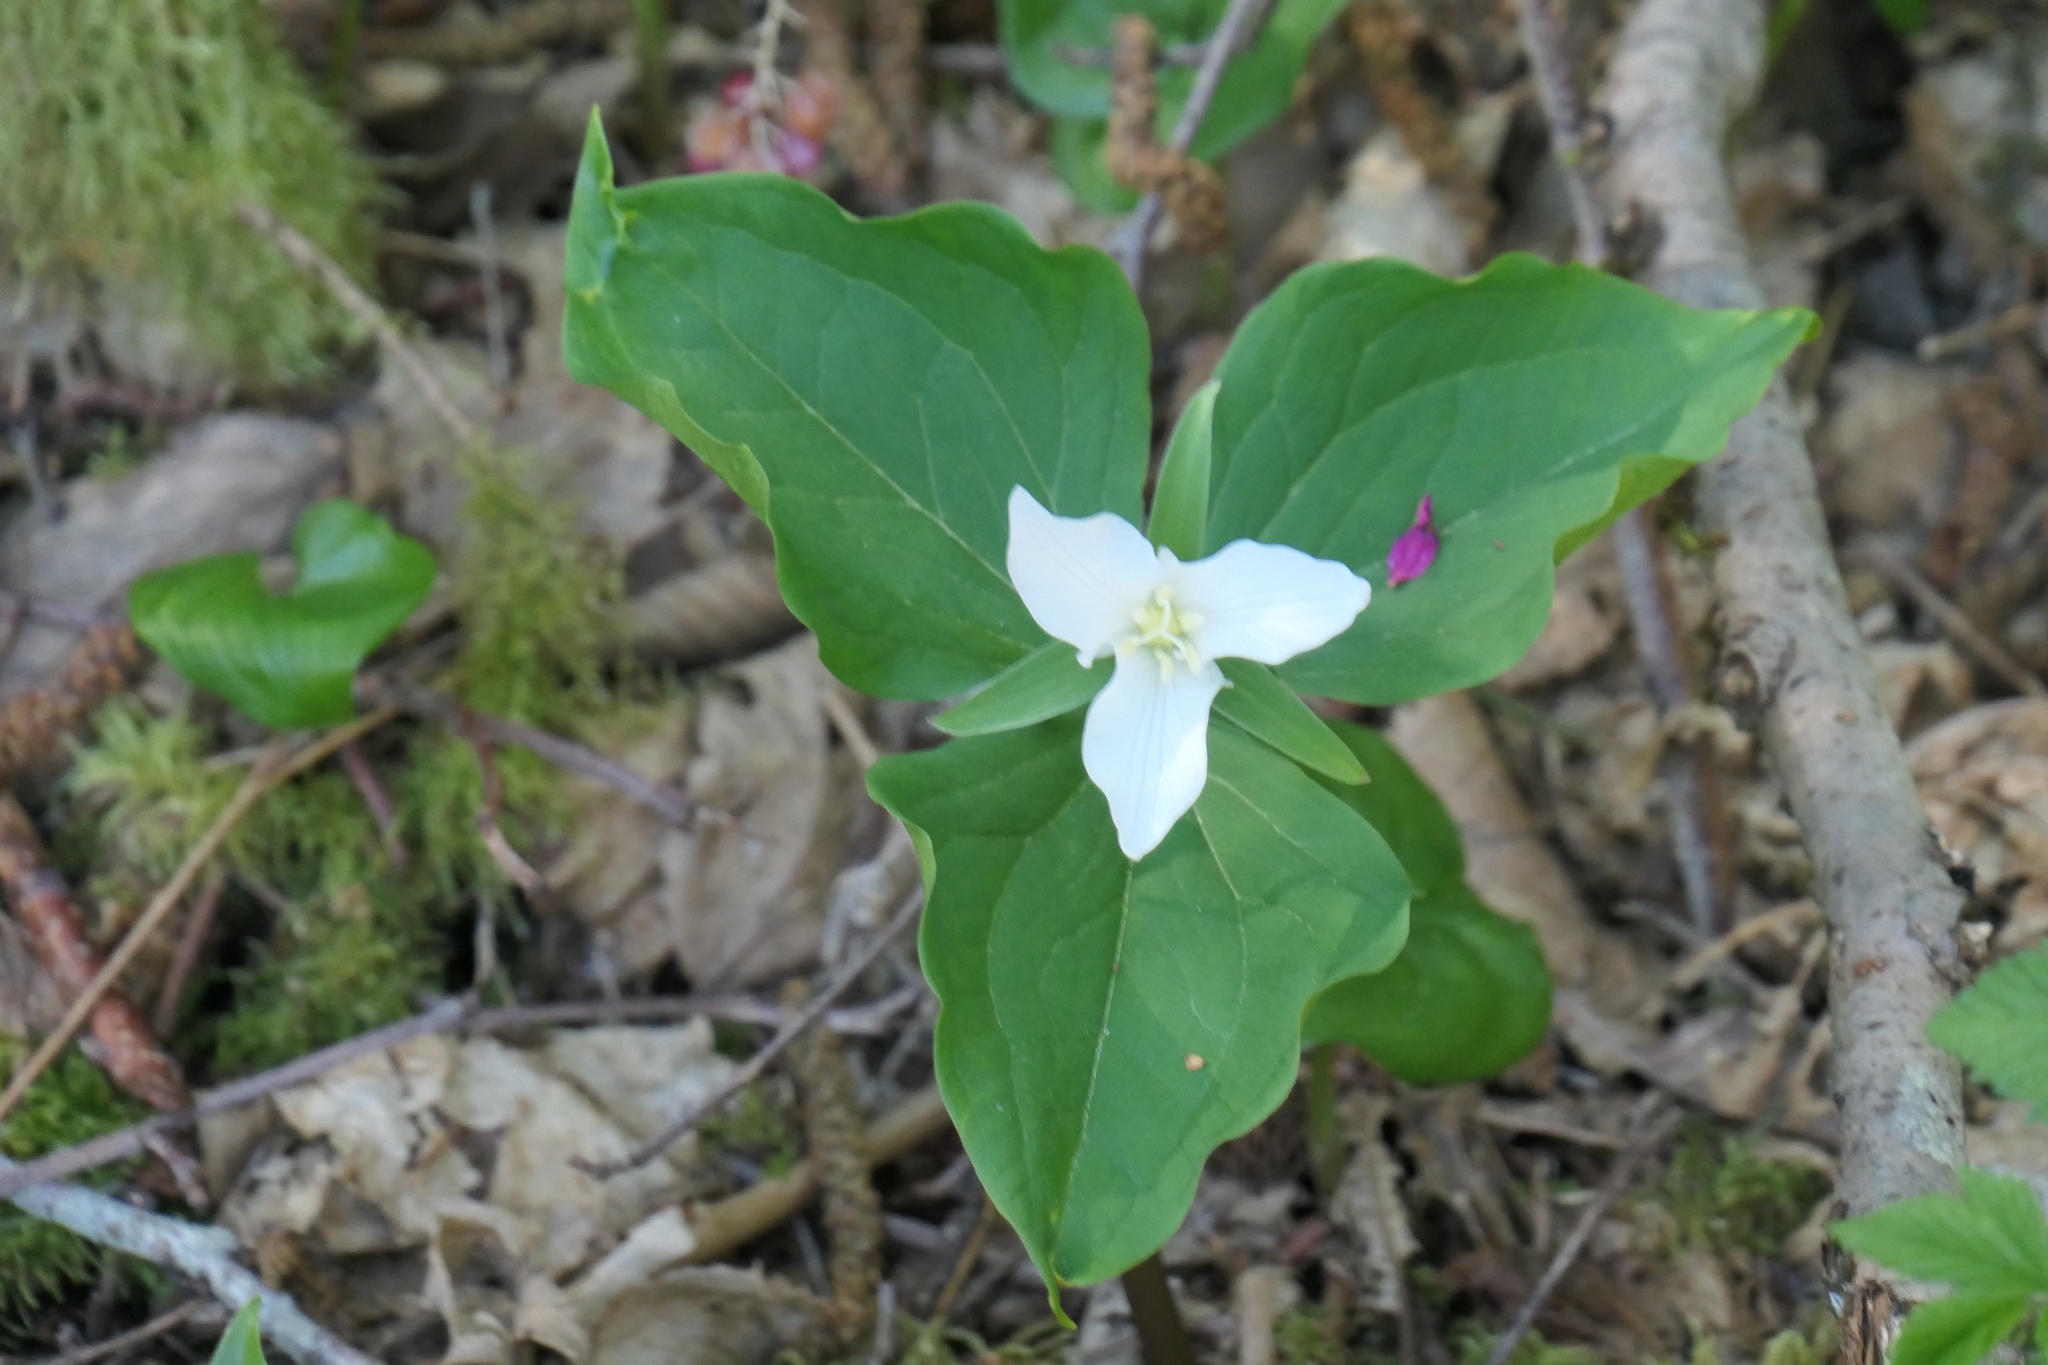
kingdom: Plantae
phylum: Tracheophyta
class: Liliopsida
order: Liliales
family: Melanthiaceae
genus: Trillium
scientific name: Trillium ovatum
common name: Pacific trillium
